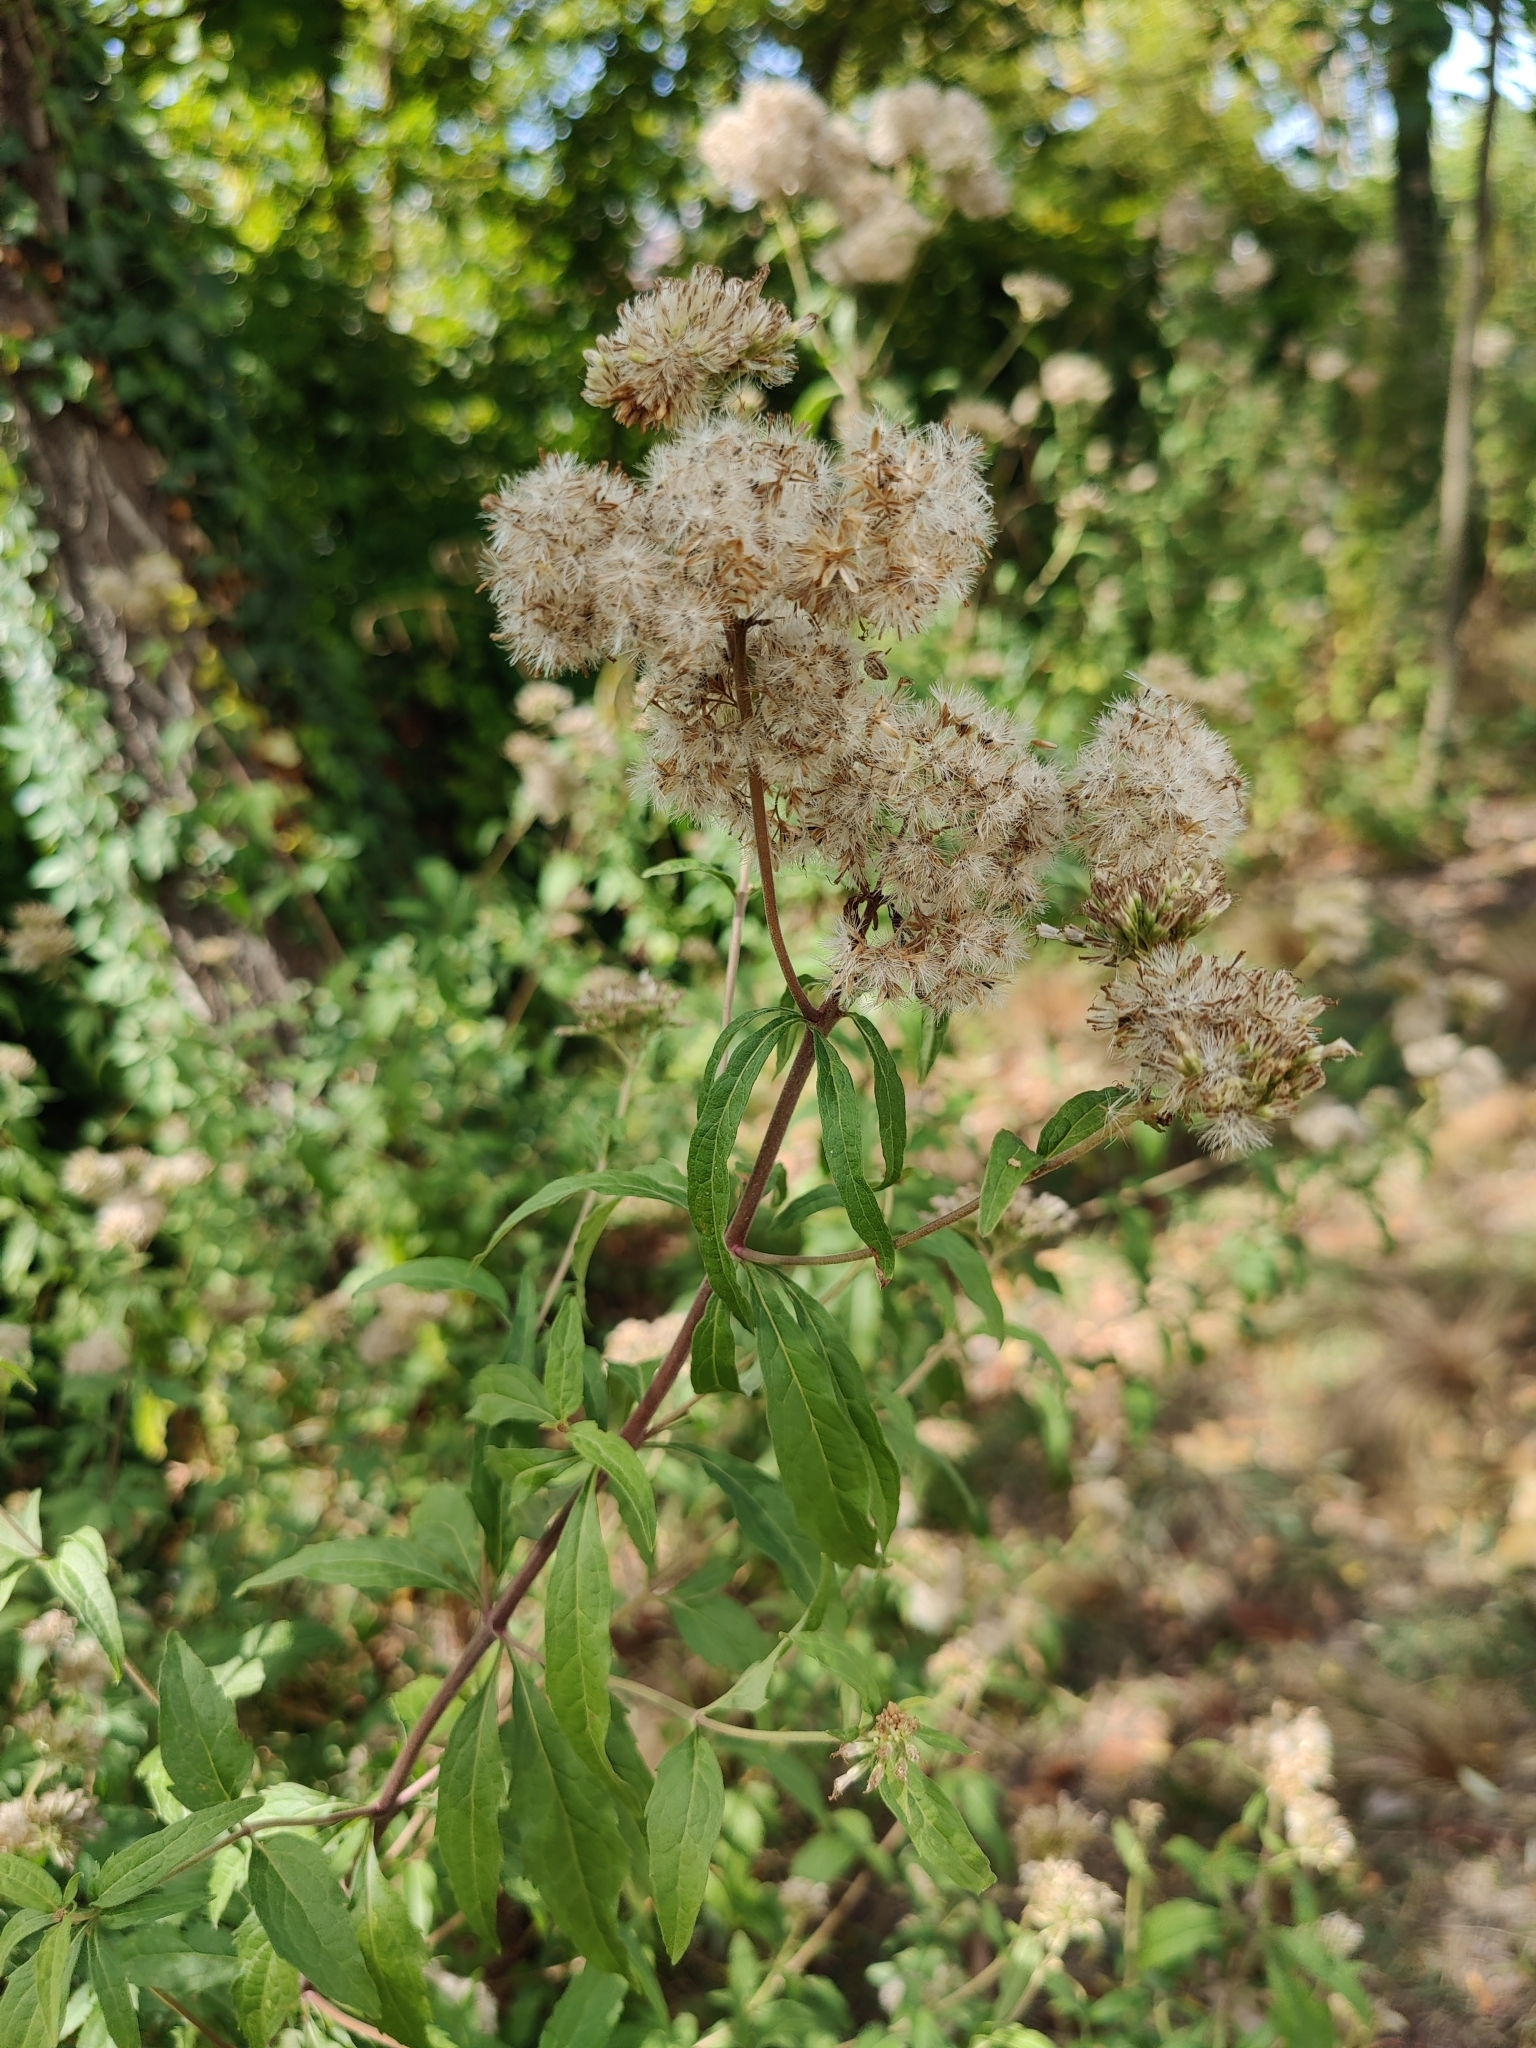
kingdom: Plantae
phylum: Tracheophyta
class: Magnoliopsida
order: Asterales
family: Asteraceae
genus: Eupatorium
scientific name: Eupatorium cannabinum
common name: Hemp-agrimony
